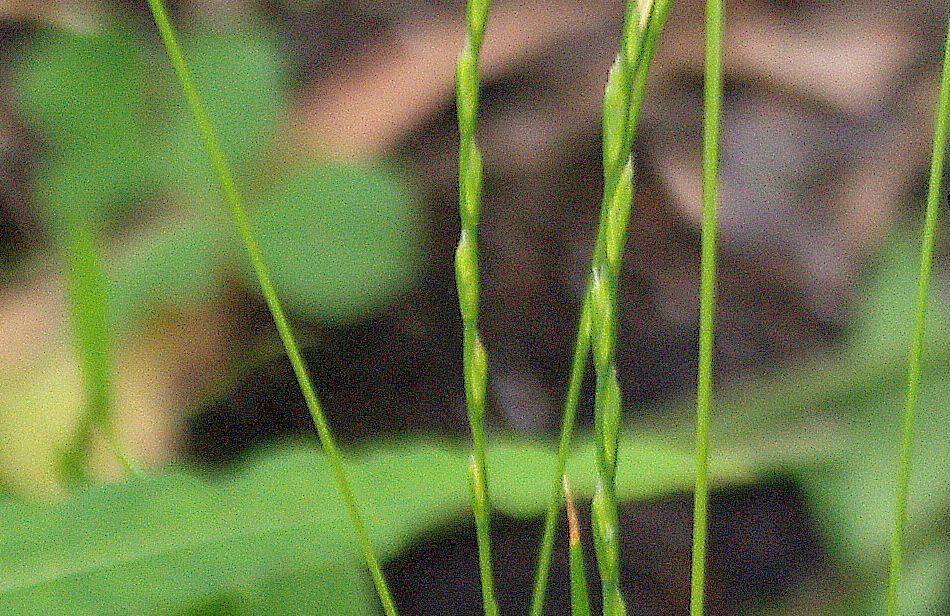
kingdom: Plantae
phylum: Tracheophyta
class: Liliopsida
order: Poales
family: Poaceae
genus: Lolium
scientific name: Lolium perenne
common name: Perennial ryegrass
